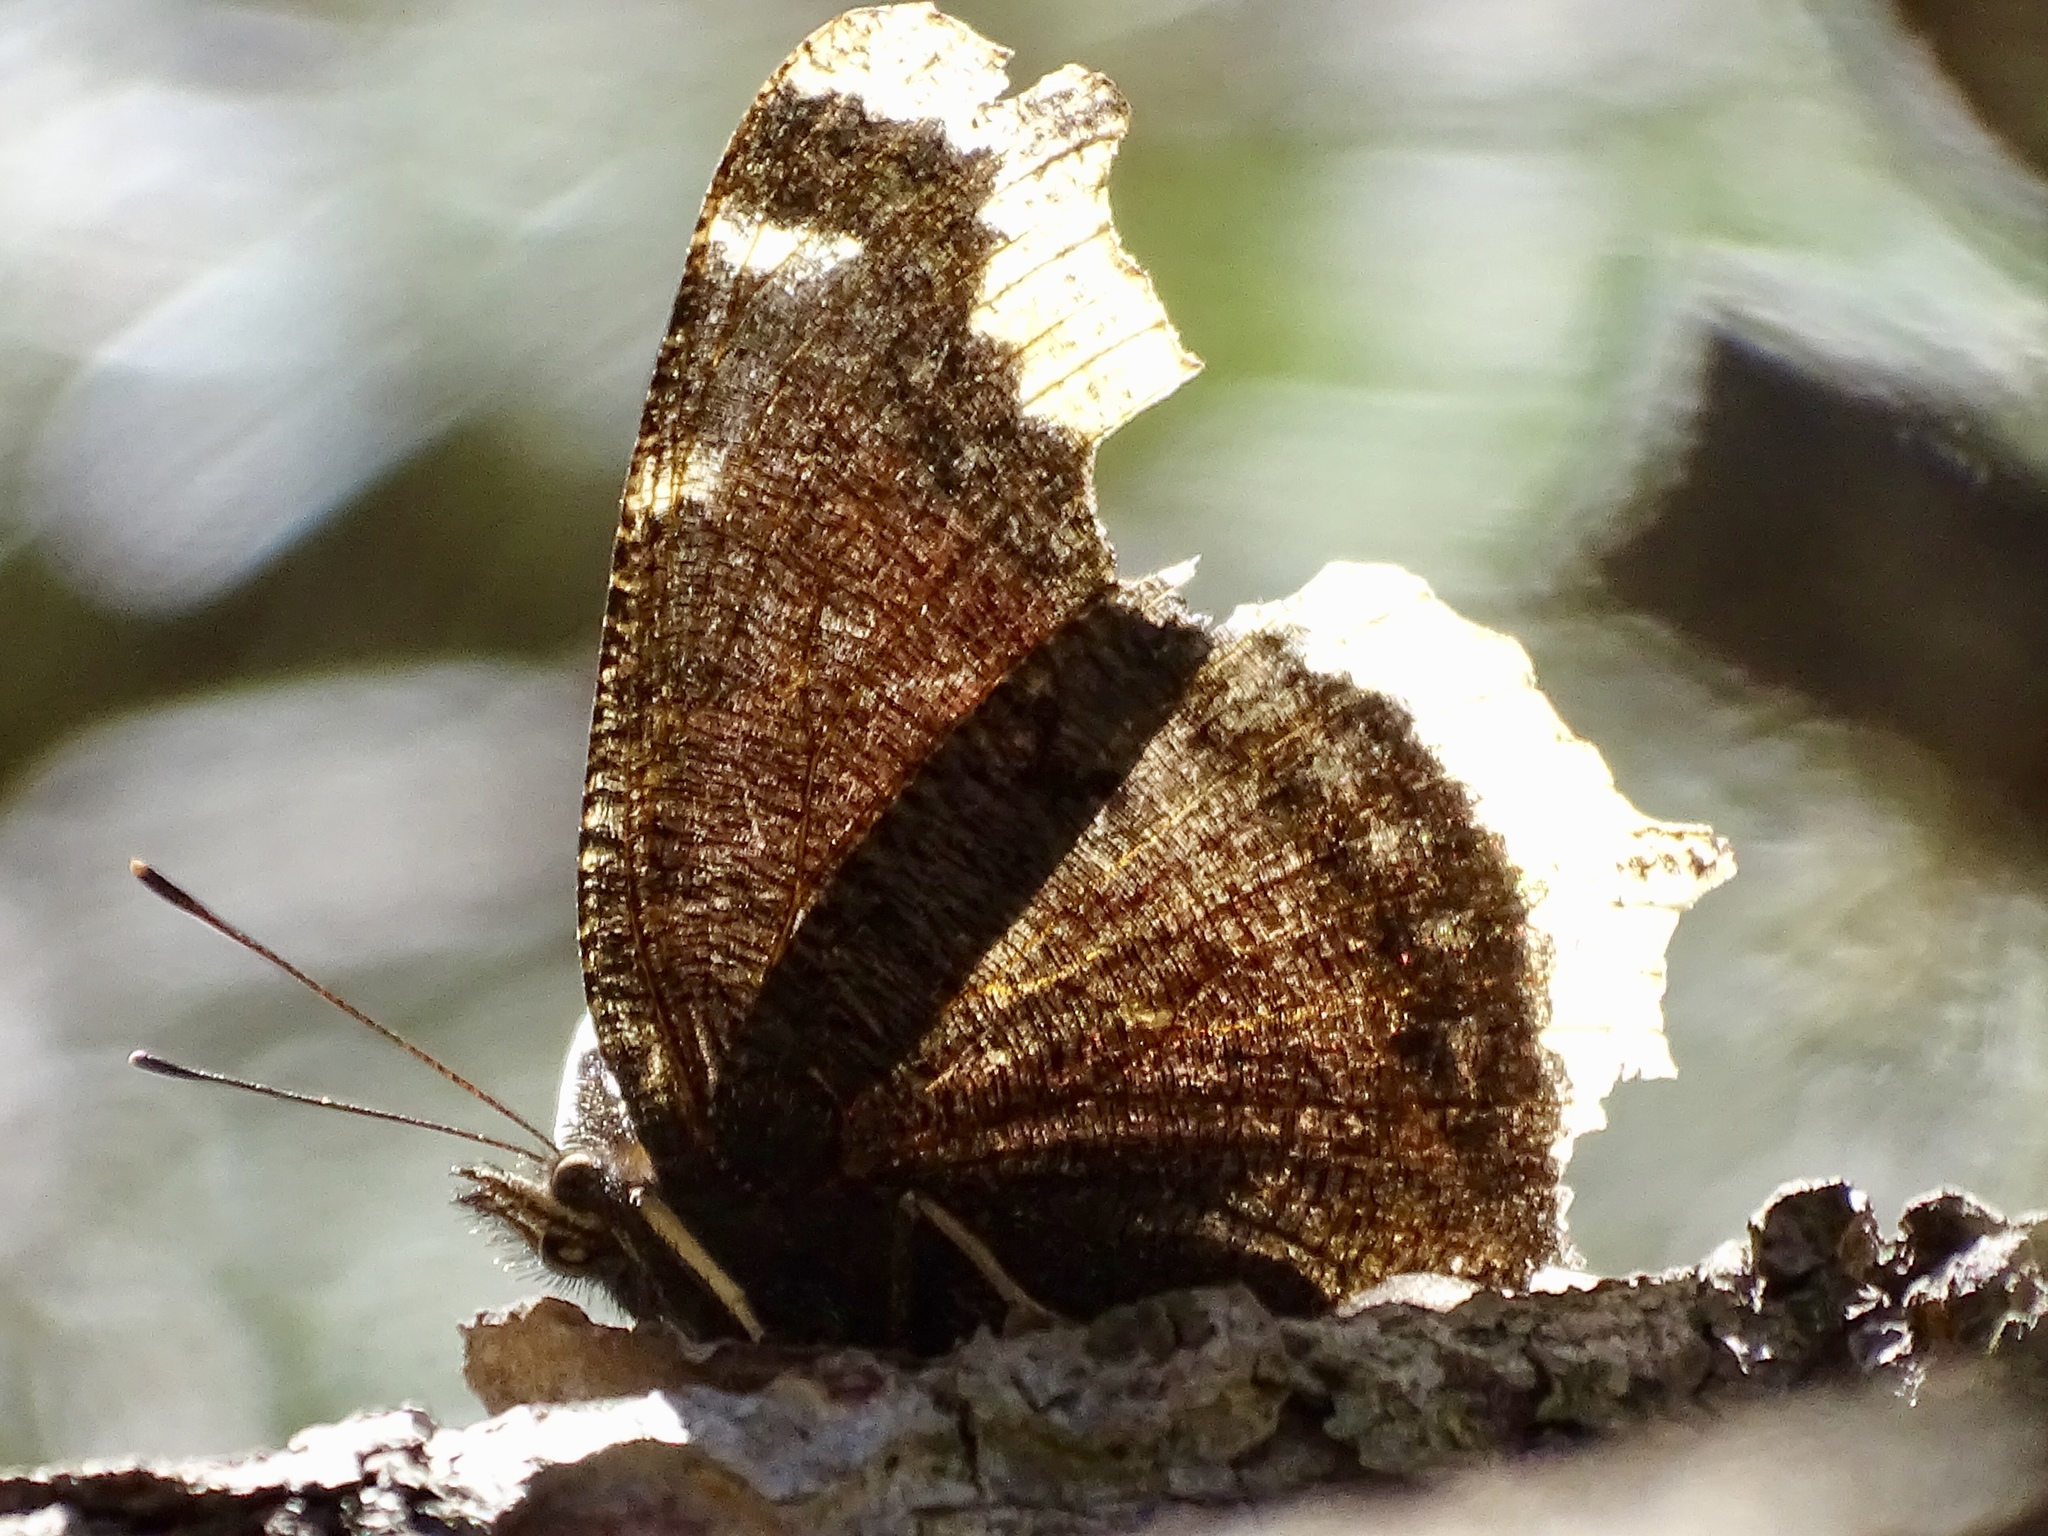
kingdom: Animalia
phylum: Arthropoda
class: Insecta
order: Lepidoptera
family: Nymphalidae
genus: Nymphalis
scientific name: Nymphalis antiopa
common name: Camberwell beauty
